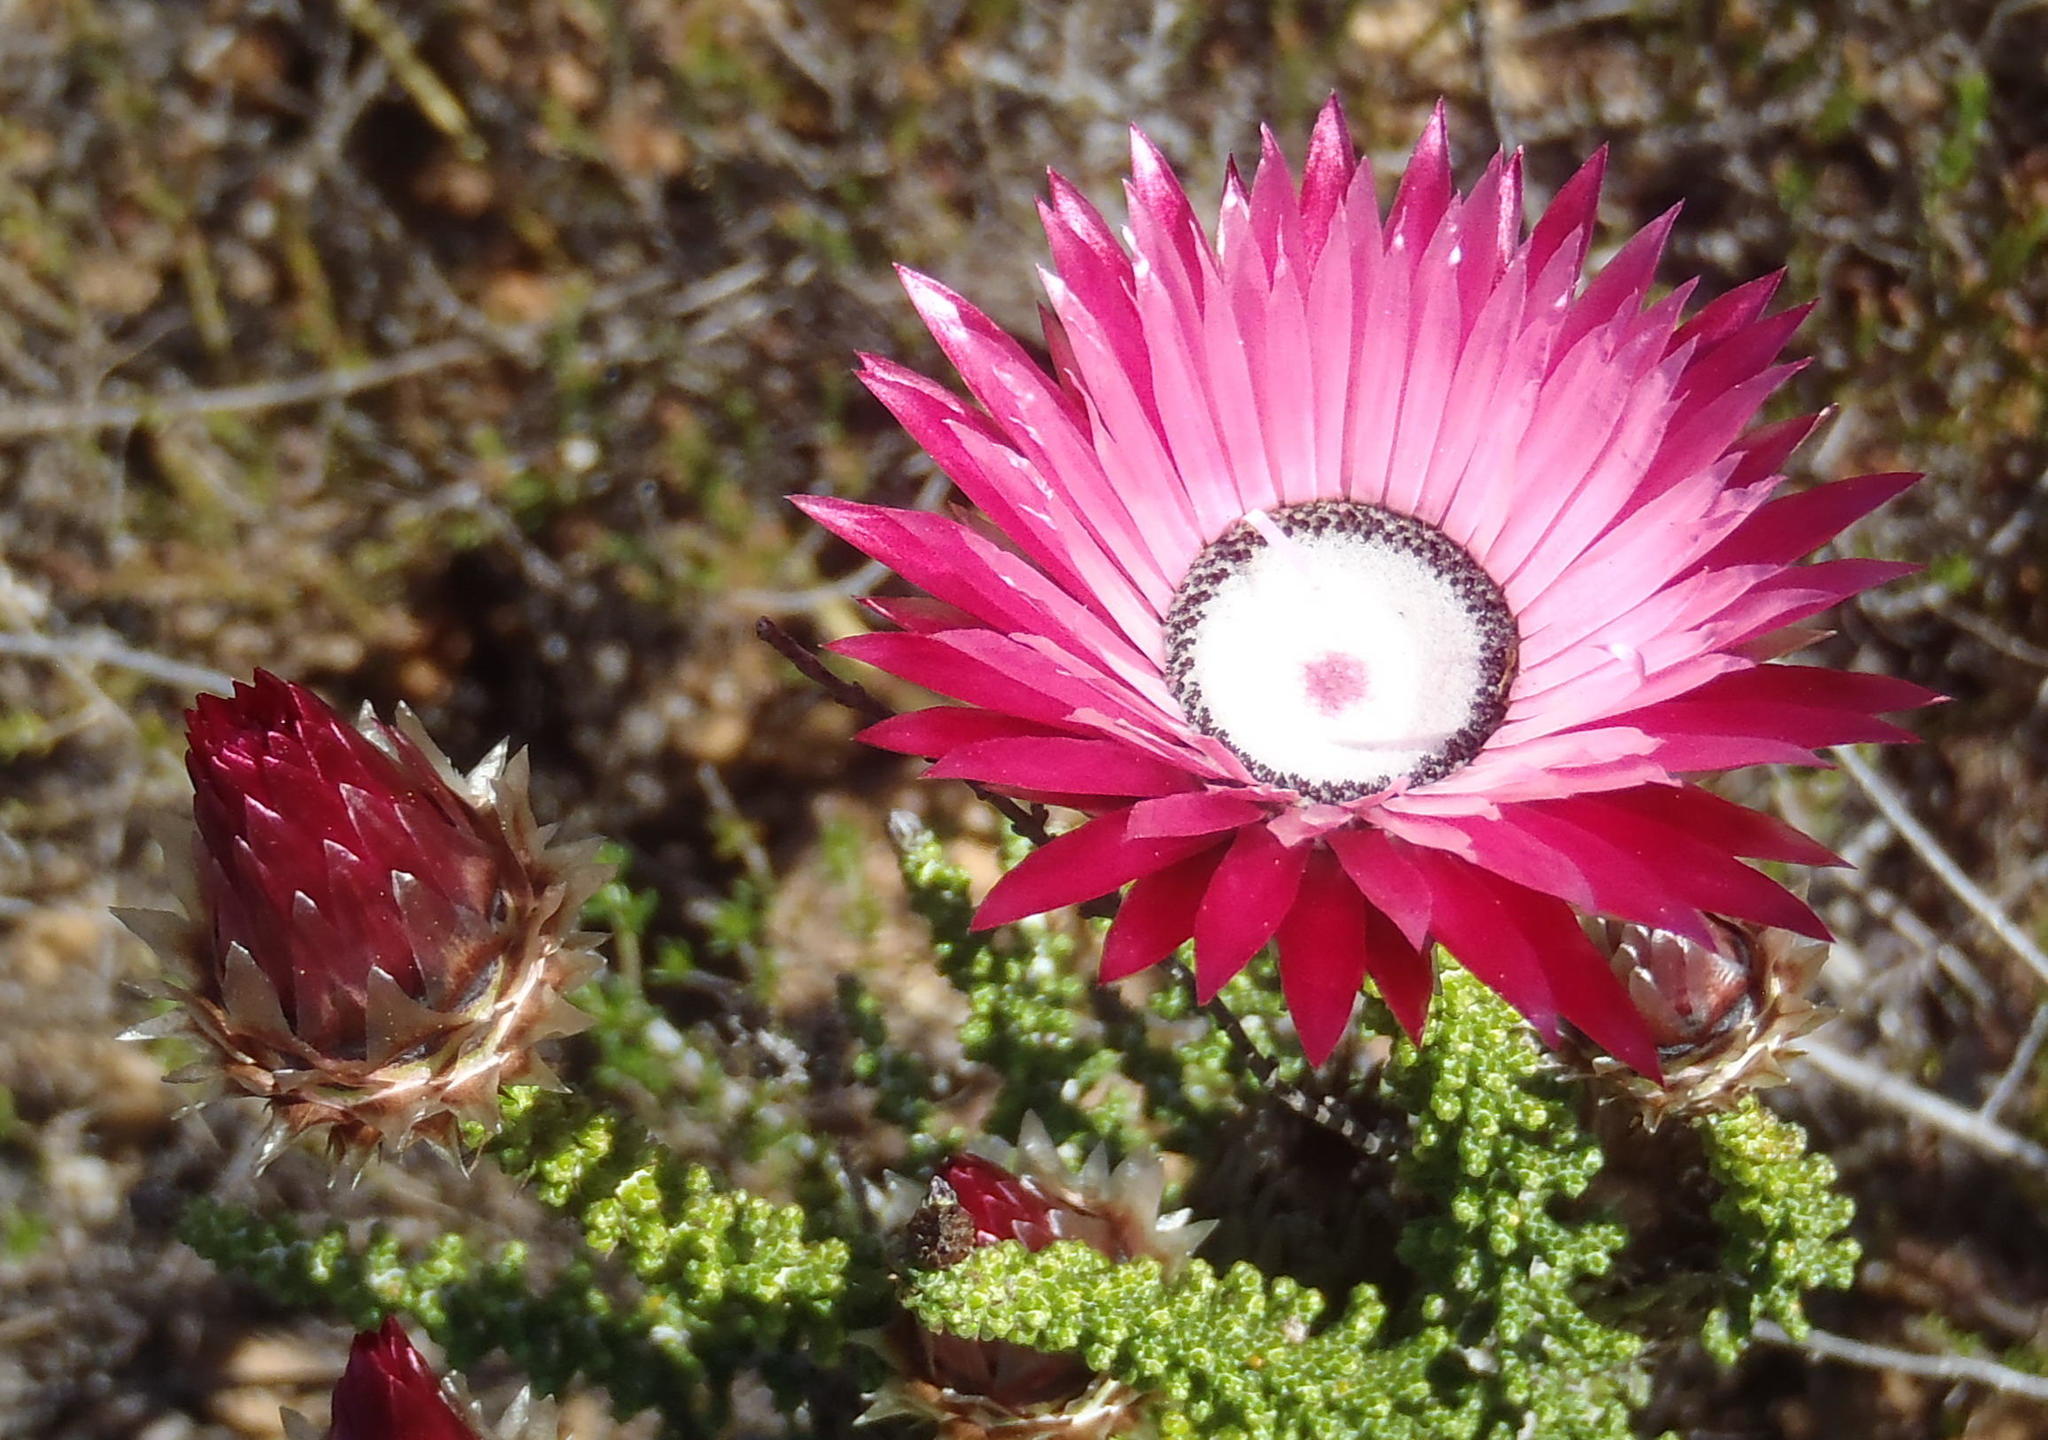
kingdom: Plantae
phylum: Tracheophyta
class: Magnoliopsida
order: Asterales
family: Asteraceae
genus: Phaenocoma
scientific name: Phaenocoma prolifera
